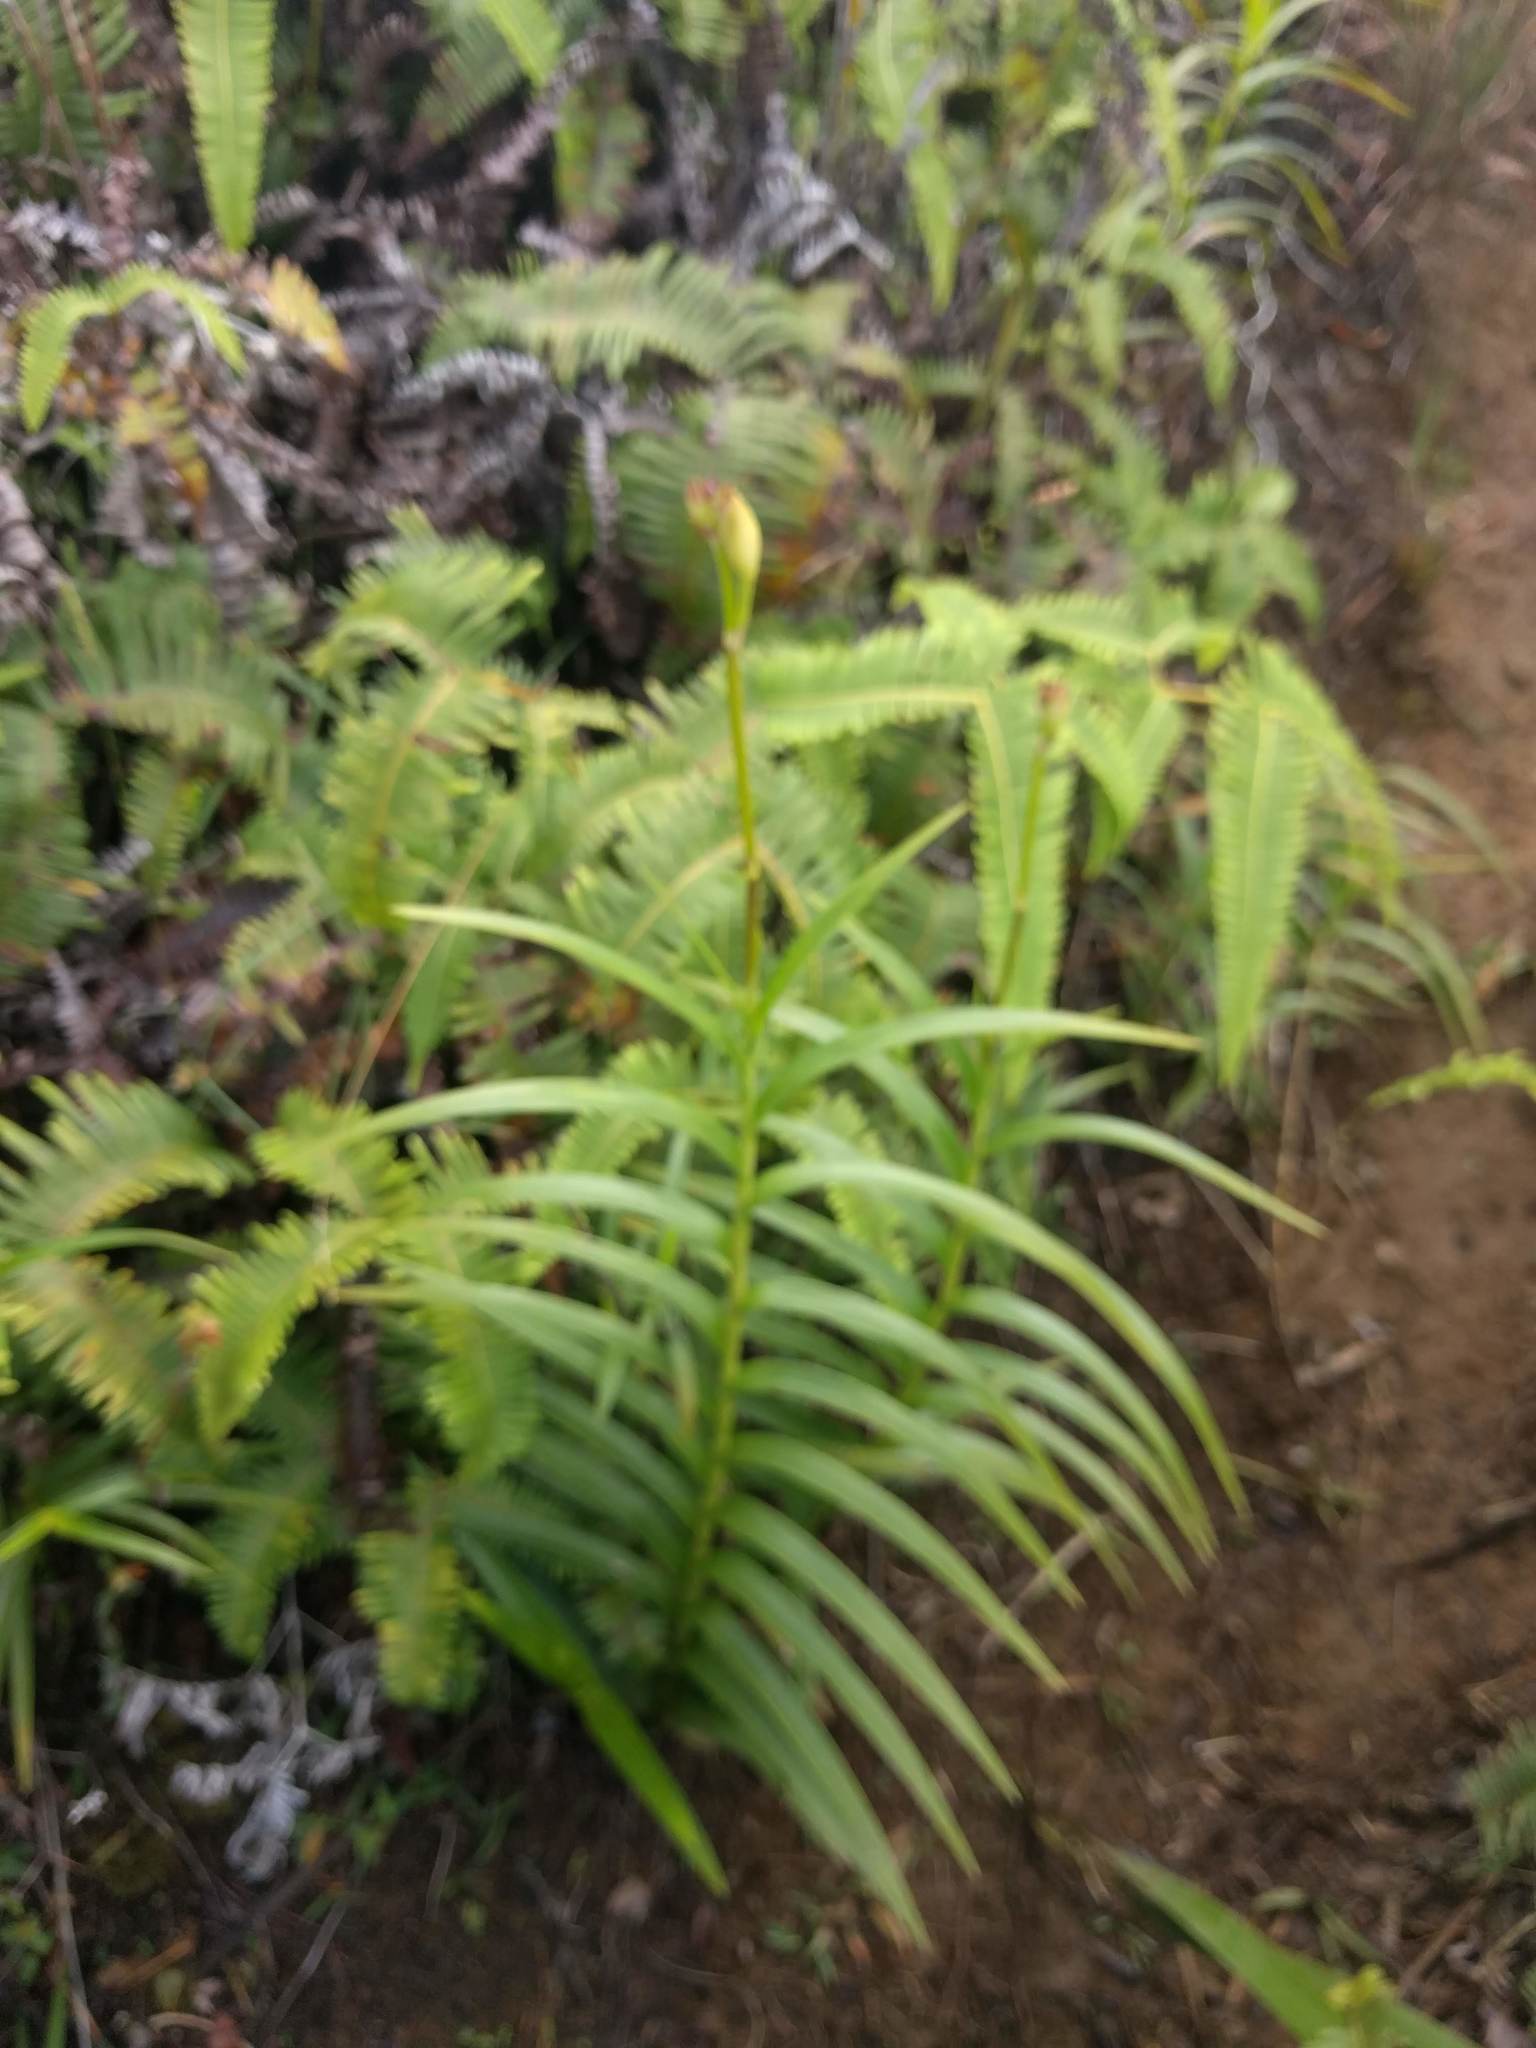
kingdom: Plantae
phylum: Tracheophyta
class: Liliopsida
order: Asparagales
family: Orchidaceae
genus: Arundina
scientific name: Arundina graminifolia
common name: Bamboo orchid
